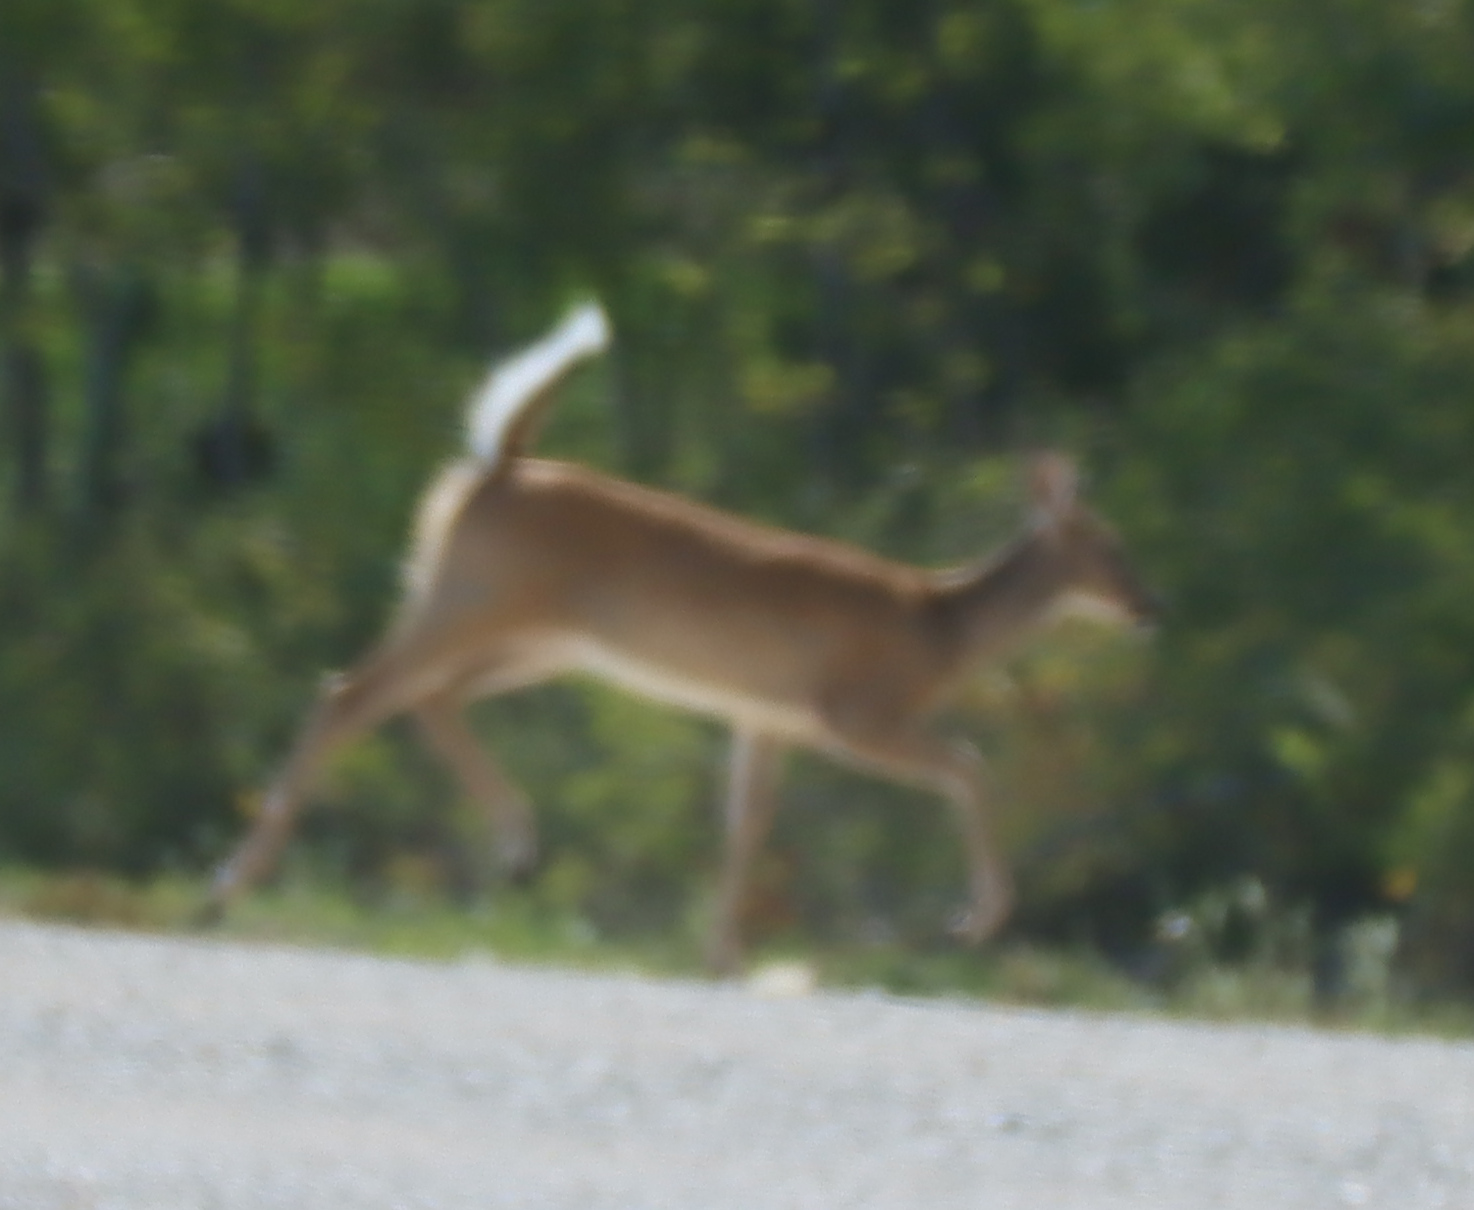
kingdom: Animalia
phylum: Chordata
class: Mammalia
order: Artiodactyla
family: Cervidae
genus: Odocoileus
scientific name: Odocoileus virginianus
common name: White-tailed deer
